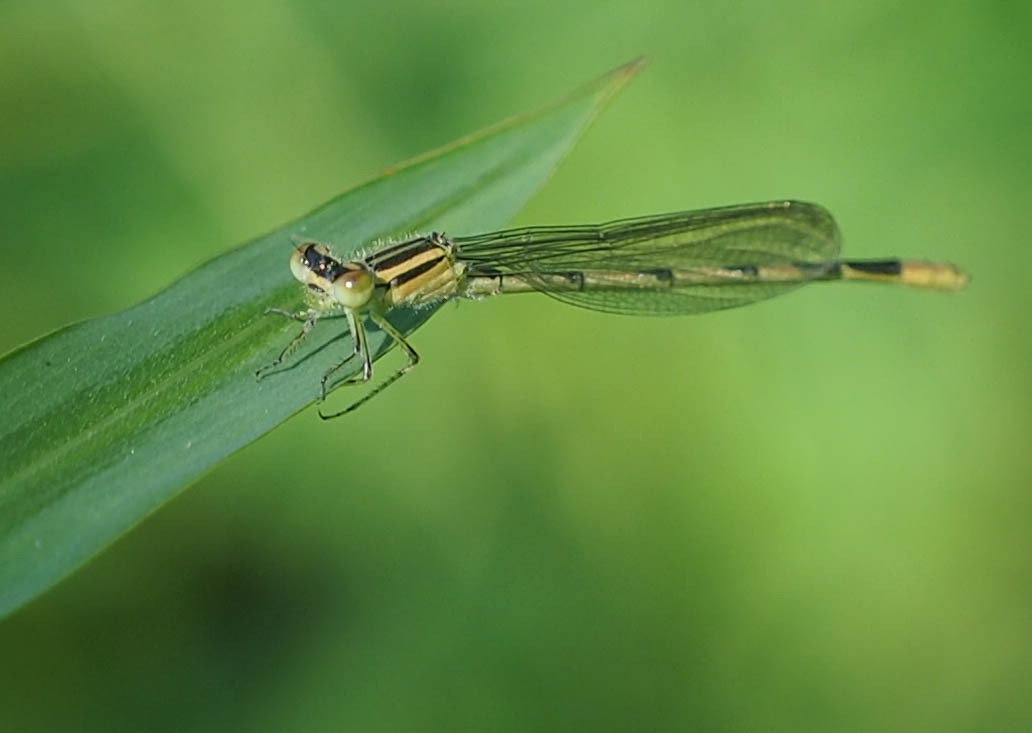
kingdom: Animalia
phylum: Arthropoda
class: Insecta
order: Odonata
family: Coenagrionidae
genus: Enallagma
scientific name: Enallagma durum
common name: Big bluet
